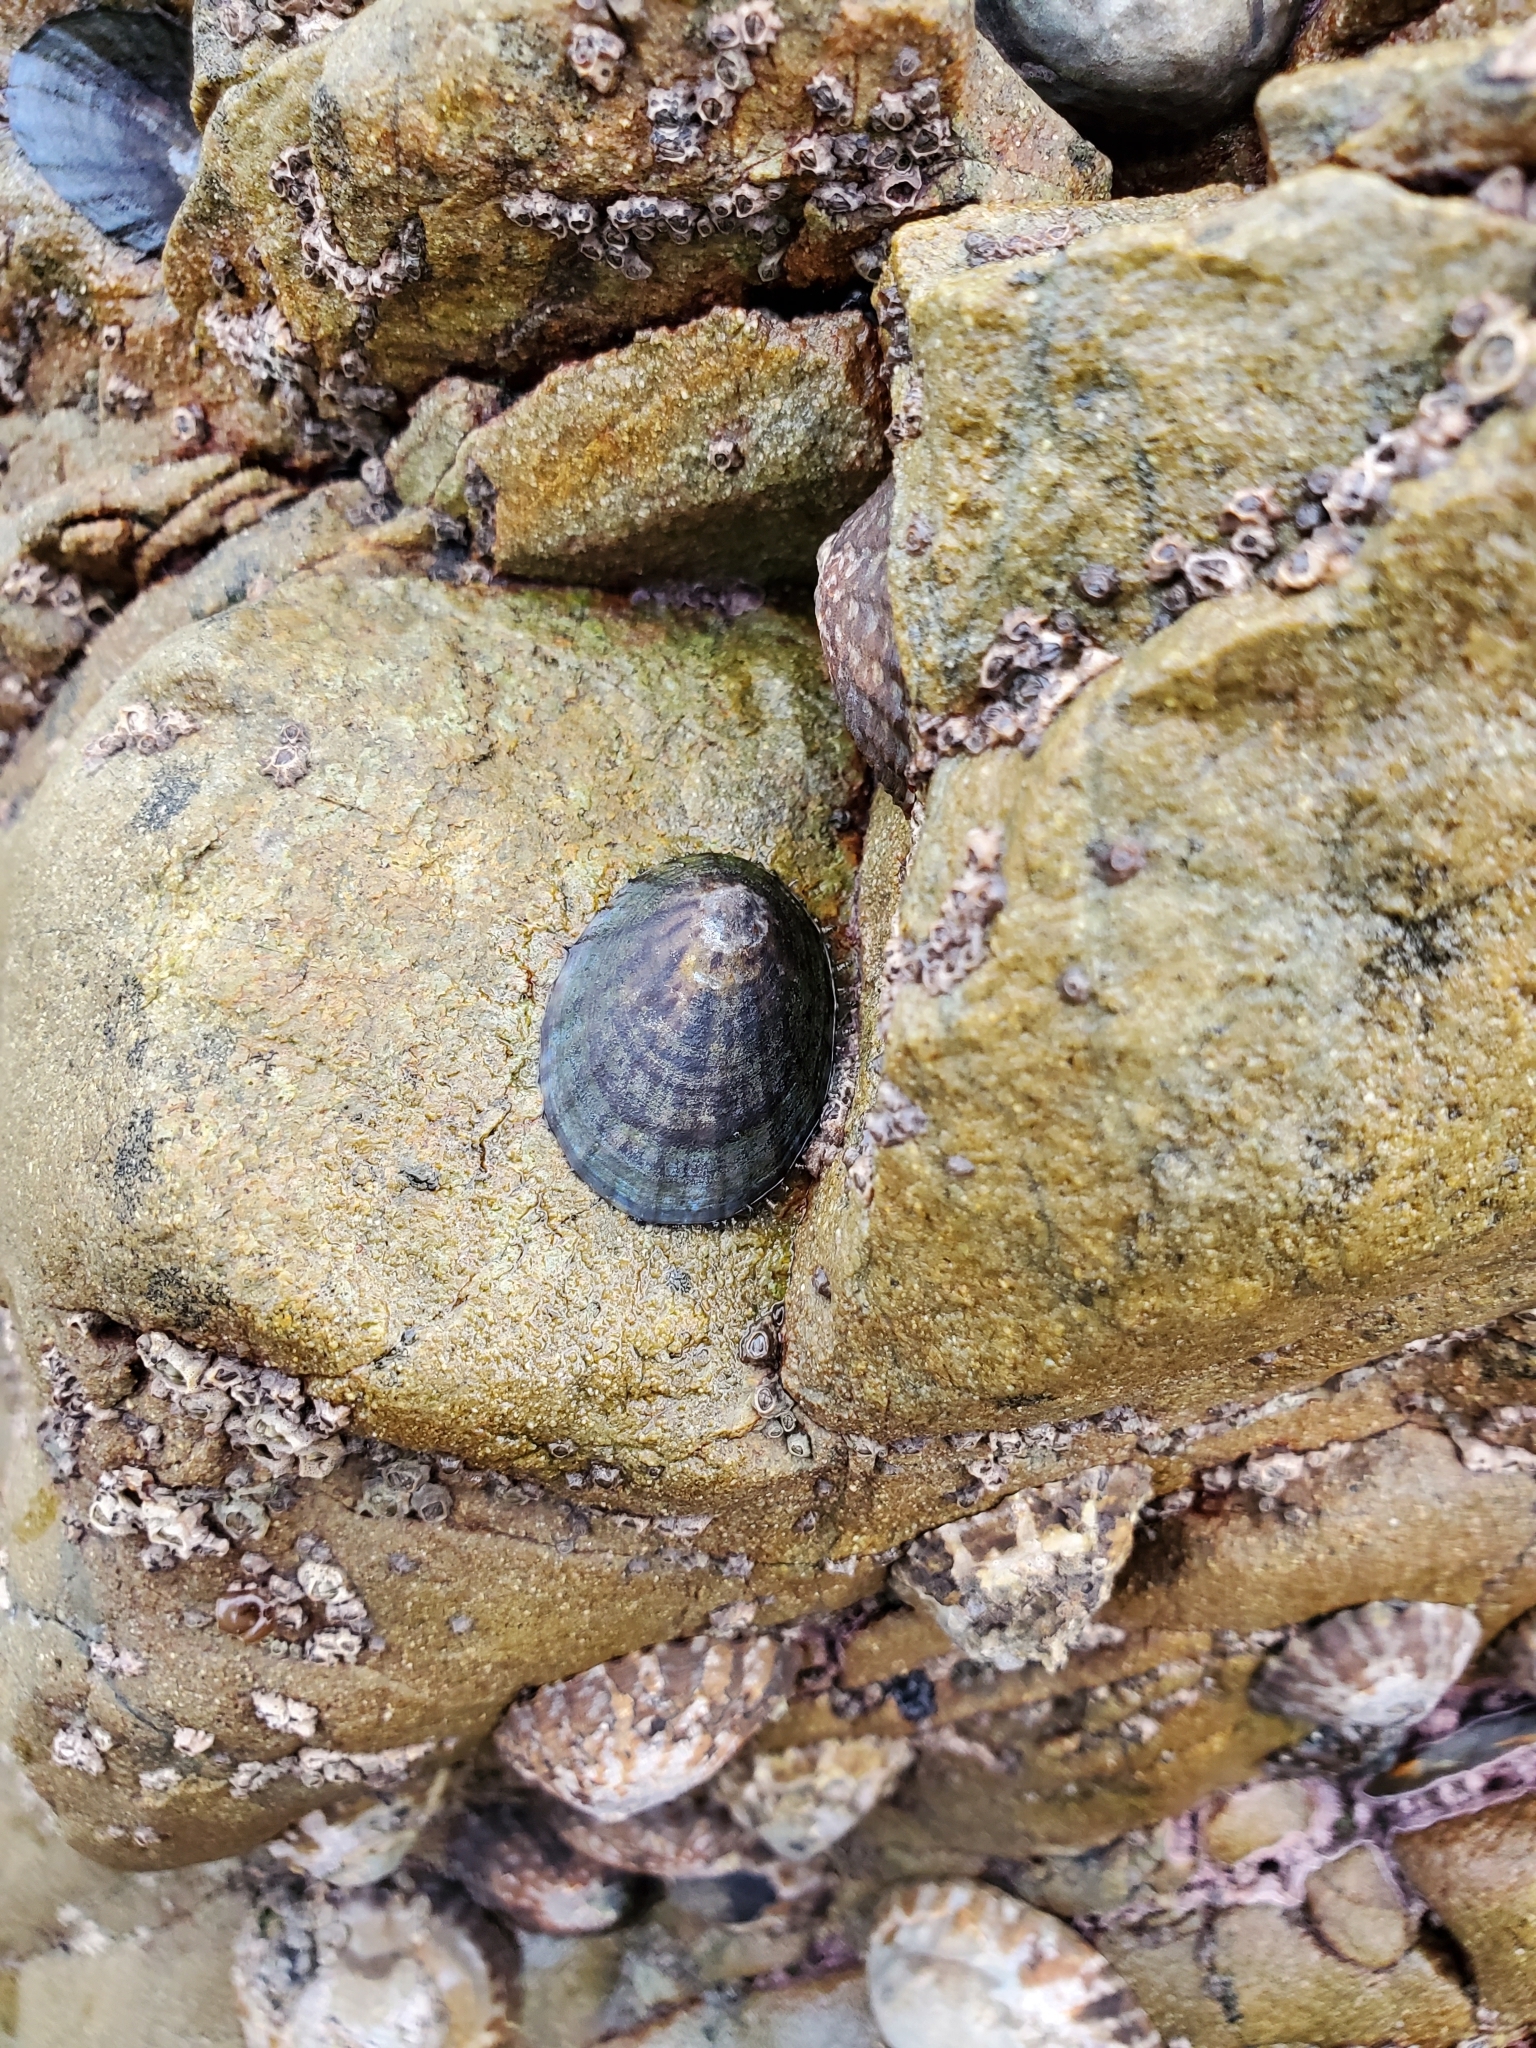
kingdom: Animalia
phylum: Mollusca
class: Gastropoda
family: Nacellidae
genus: Cellana
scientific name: Cellana radians
